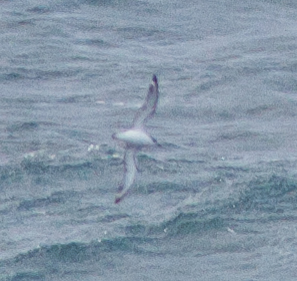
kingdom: Animalia
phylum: Chordata
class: Aves
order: Procellariiformes
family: Procellariidae
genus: Pterodroma
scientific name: Pterodroma cookii
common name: Cook's petrel
